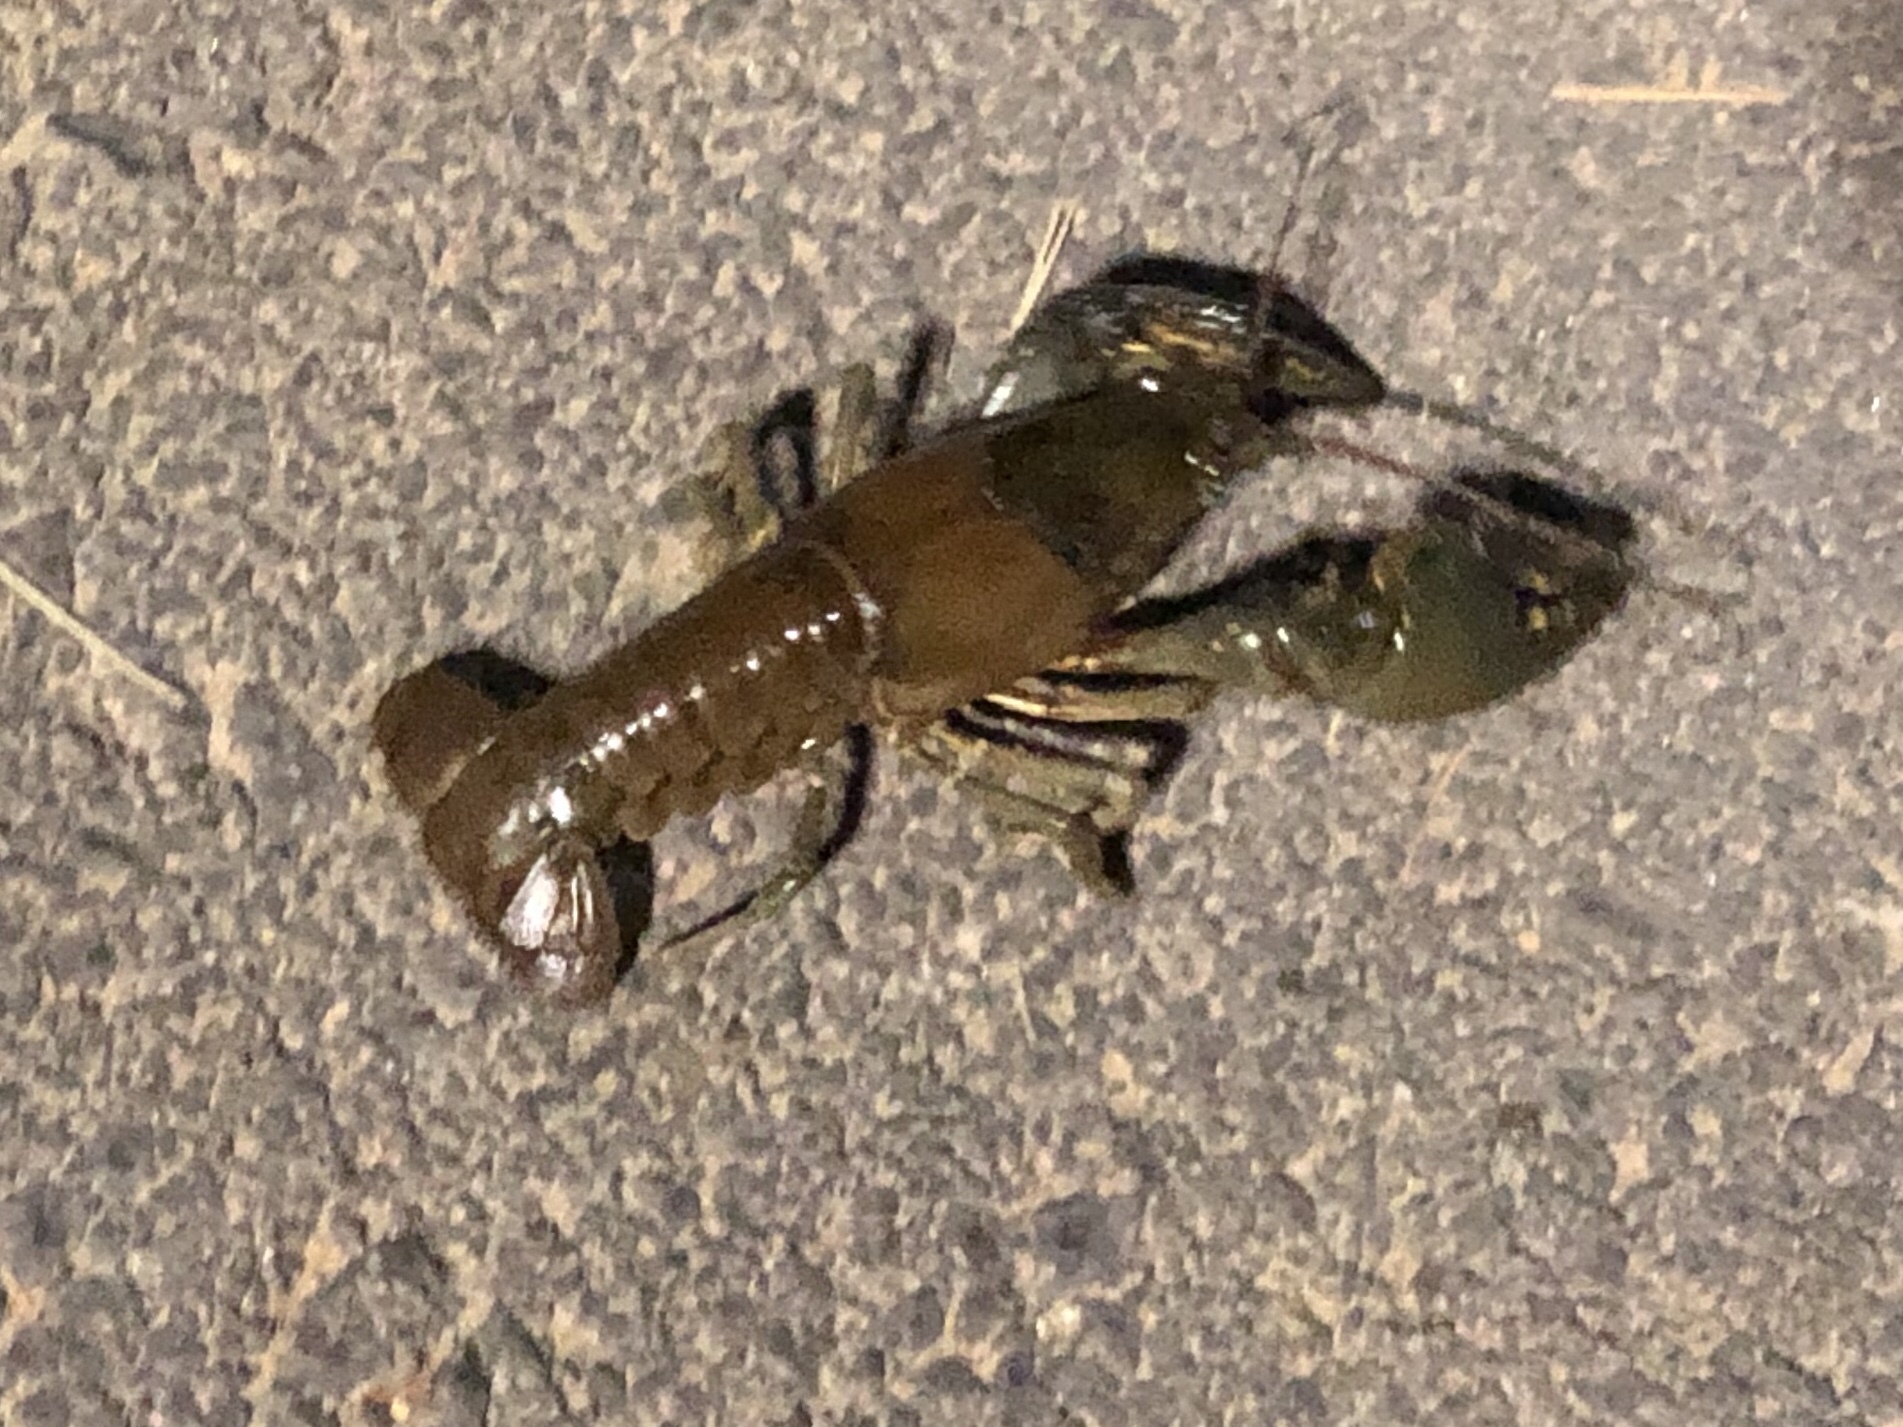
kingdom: Animalia
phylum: Arthropoda
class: Malacostraca
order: Decapoda
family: Cambaridae
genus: Faxonius
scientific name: Faxonius virilis
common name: Virile crayfish
